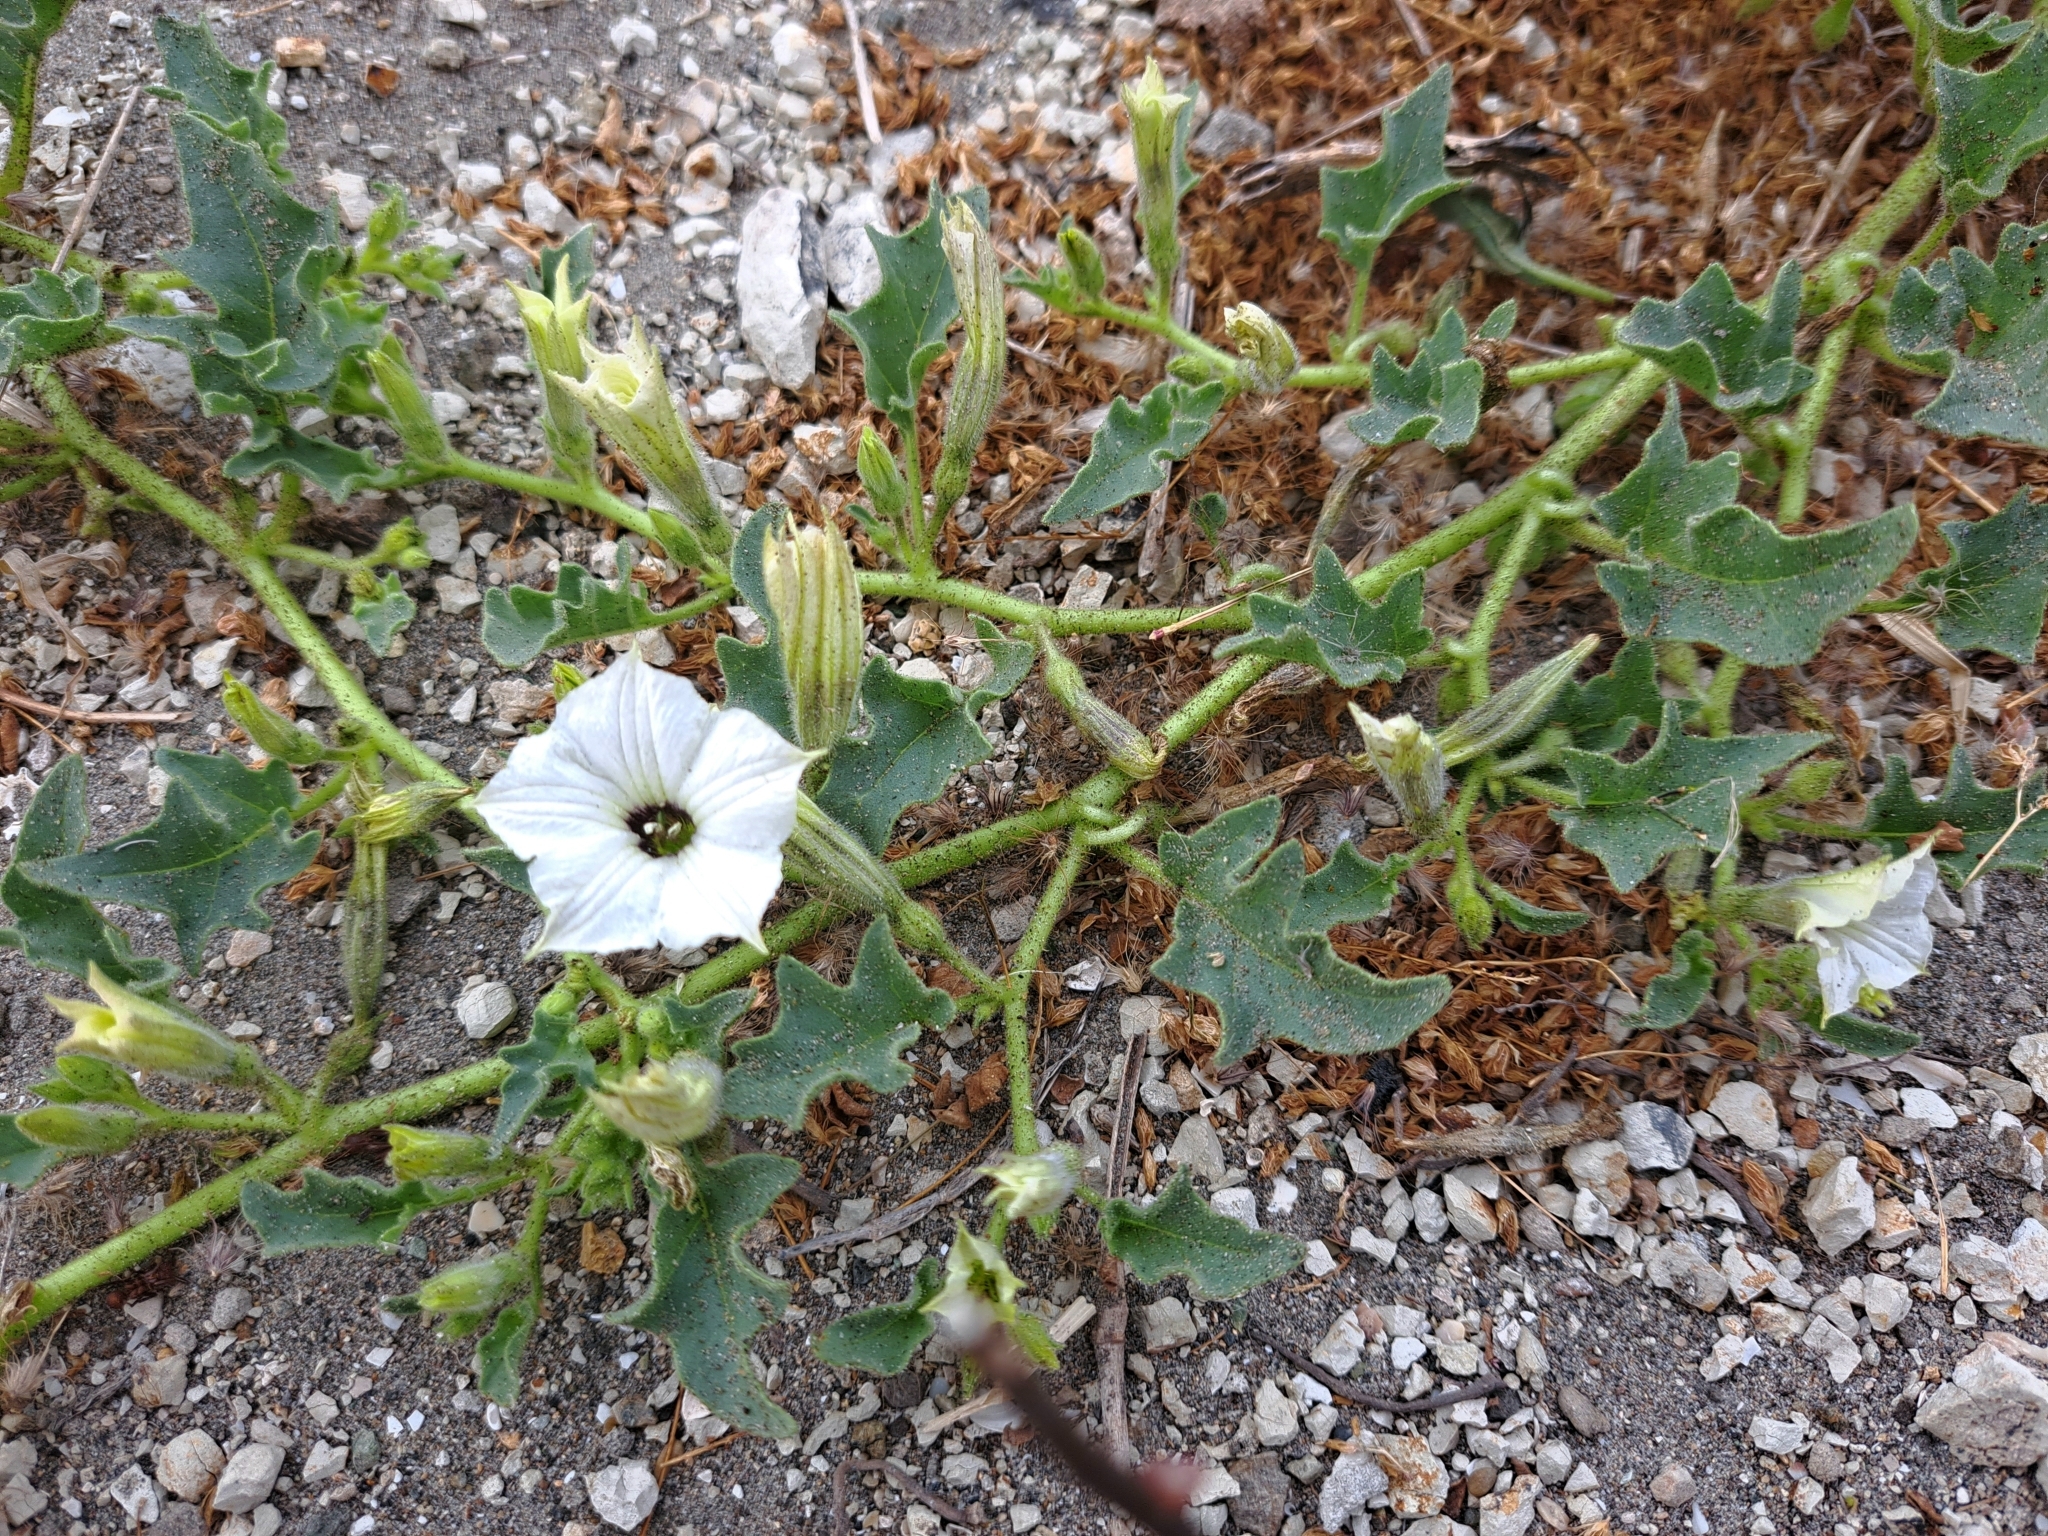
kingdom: Plantae
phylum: Tracheophyta
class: Magnoliopsida
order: Solanales
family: Solanaceae
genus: Exodeconus
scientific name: Exodeconus maritima
